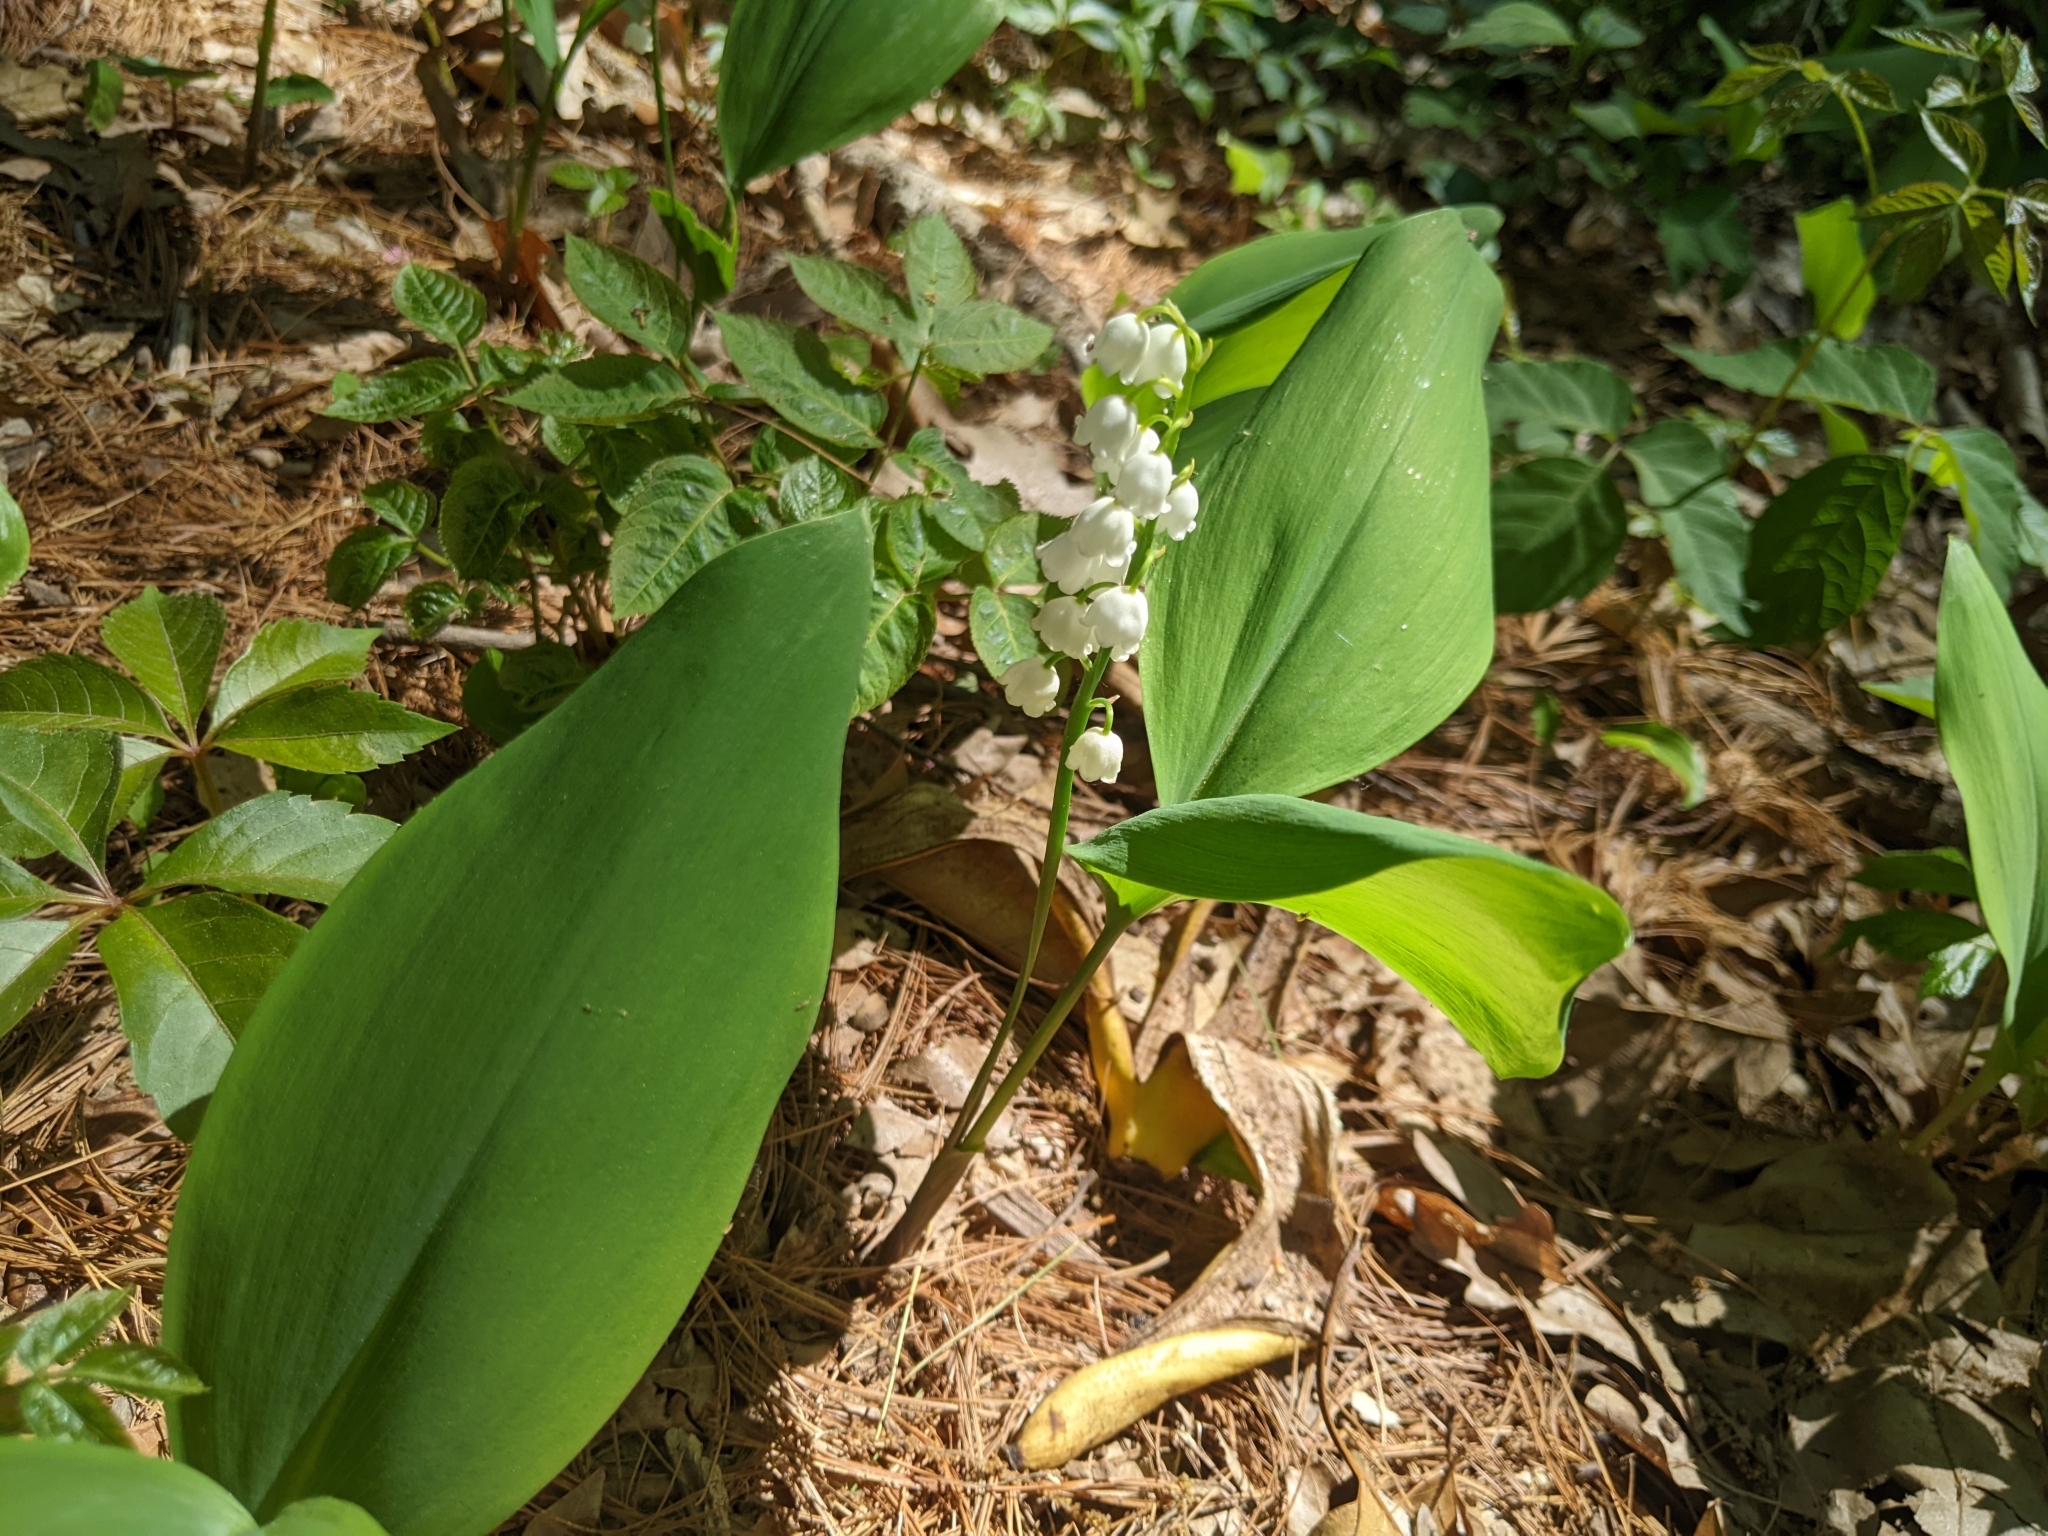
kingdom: Plantae
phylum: Tracheophyta
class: Liliopsida
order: Asparagales
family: Asparagaceae
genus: Convallaria
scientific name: Convallaria majalis
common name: Lily-of-the-valley
